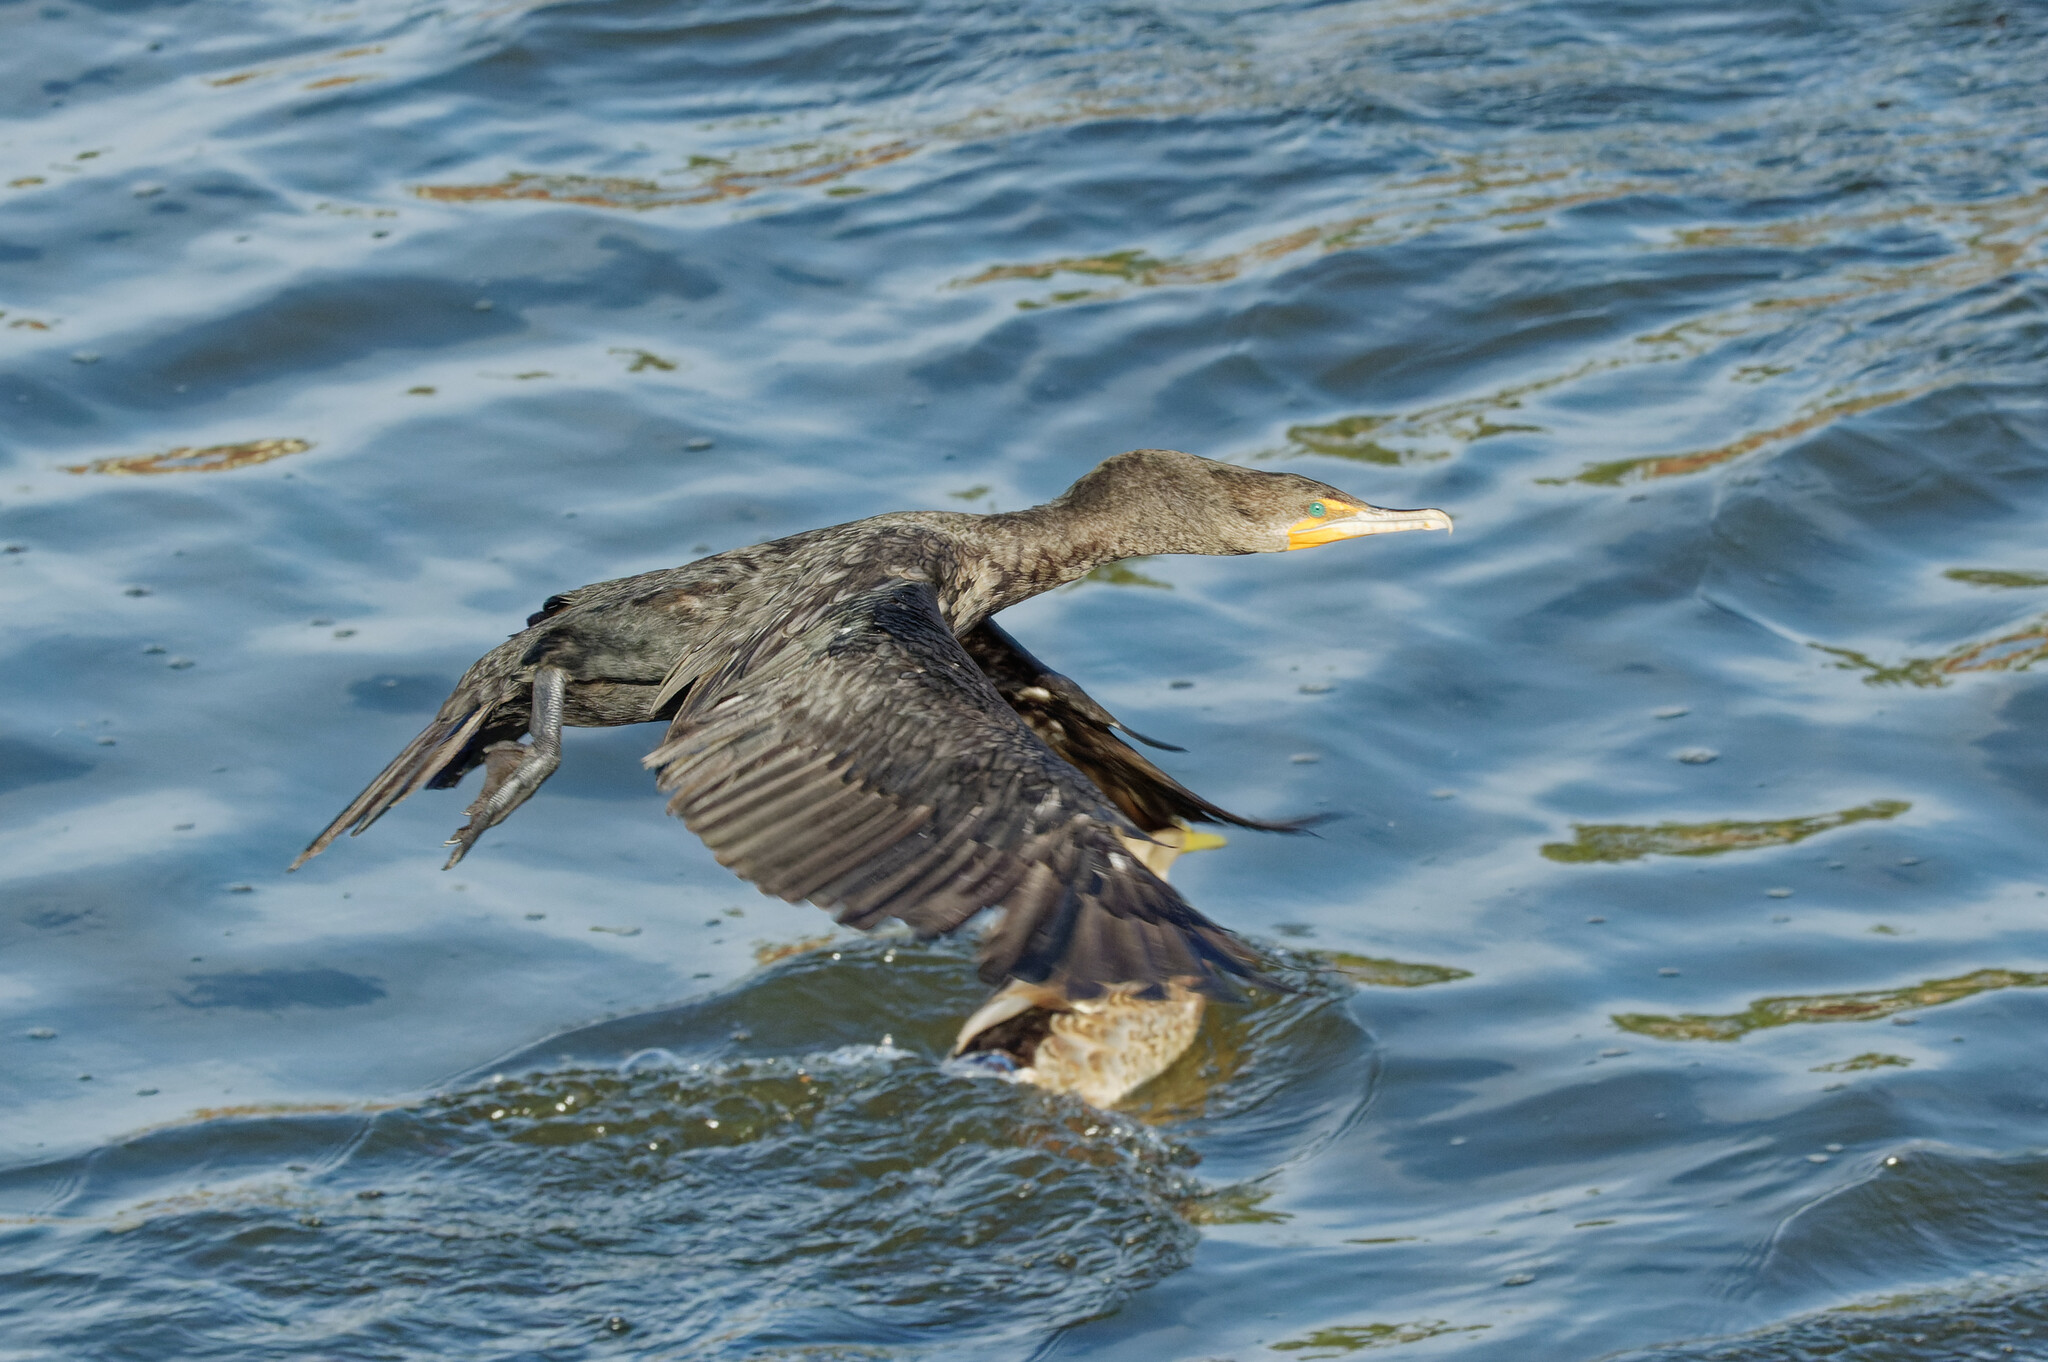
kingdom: Animalia
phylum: Chordata
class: Aves
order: Suliformes
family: Phalacrocoracidae
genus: Phalacrocorax
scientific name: Phalacrocorax auritus
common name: Double-crested cormorant
